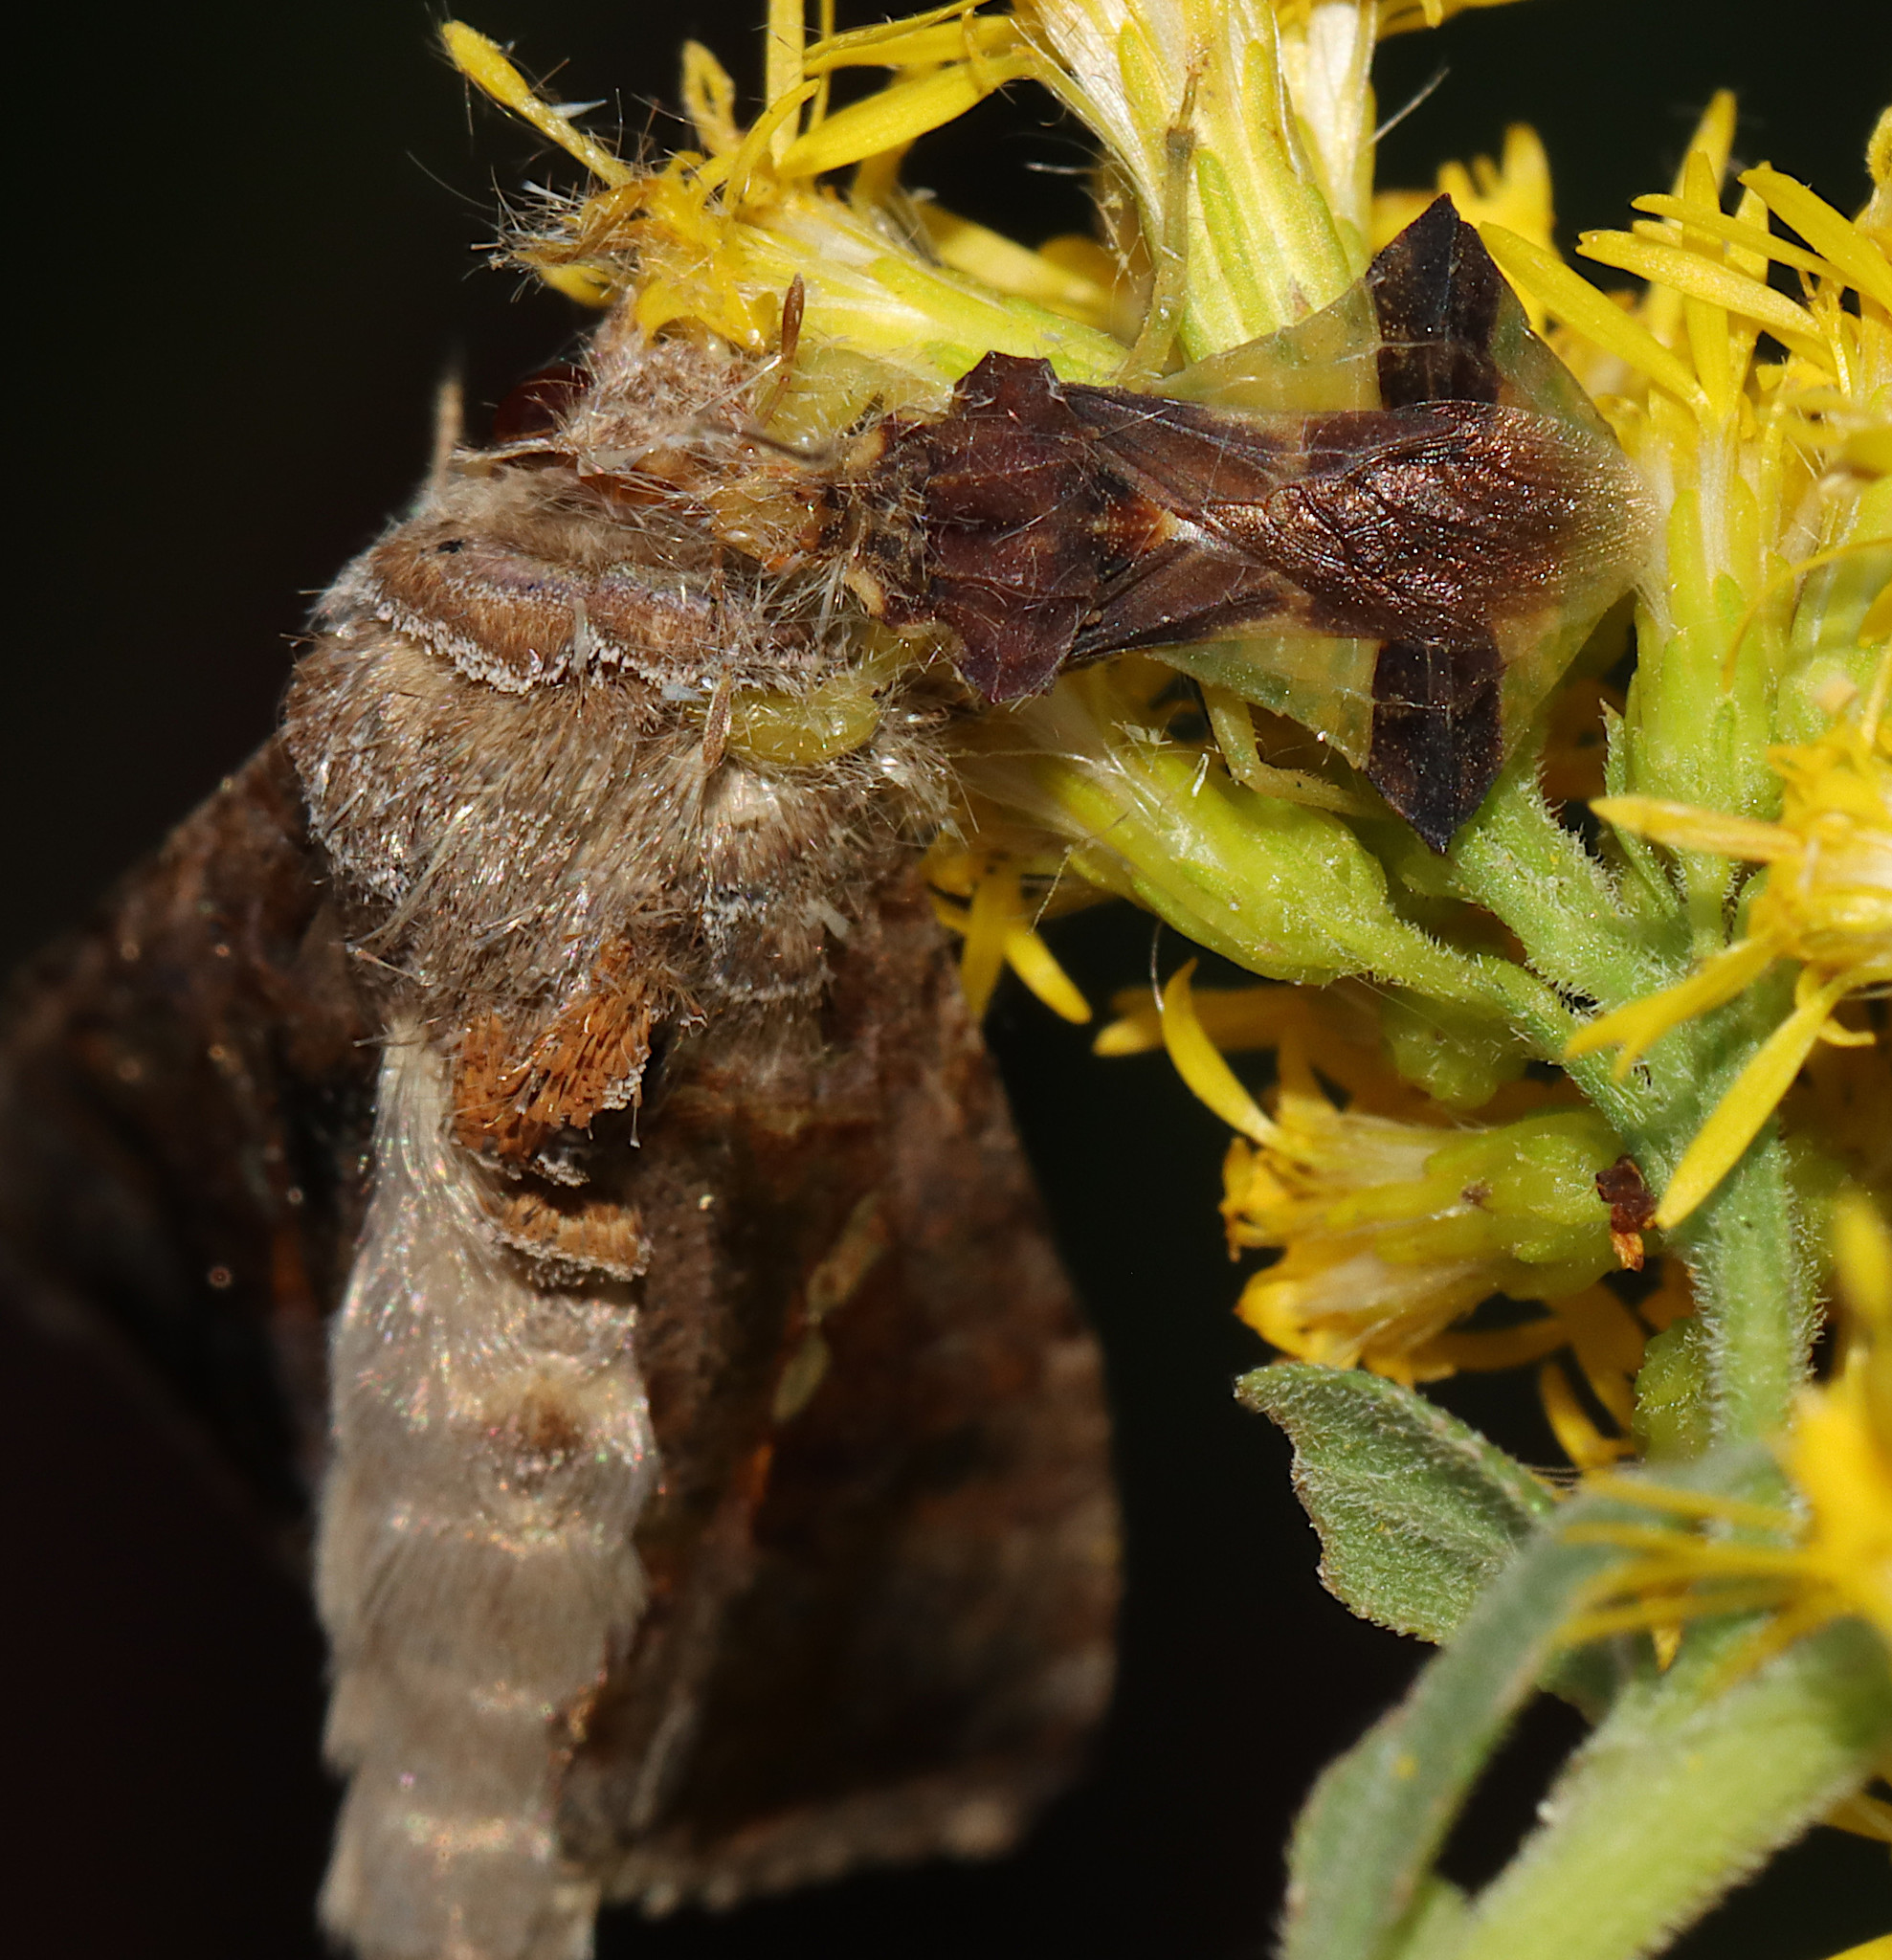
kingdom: Animalia
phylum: Arthropoda
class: Insecta
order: Hemiptera
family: Reduviidae
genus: Phymata
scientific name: Phymata pennsylvanica
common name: Pennsylvania ambush bug
